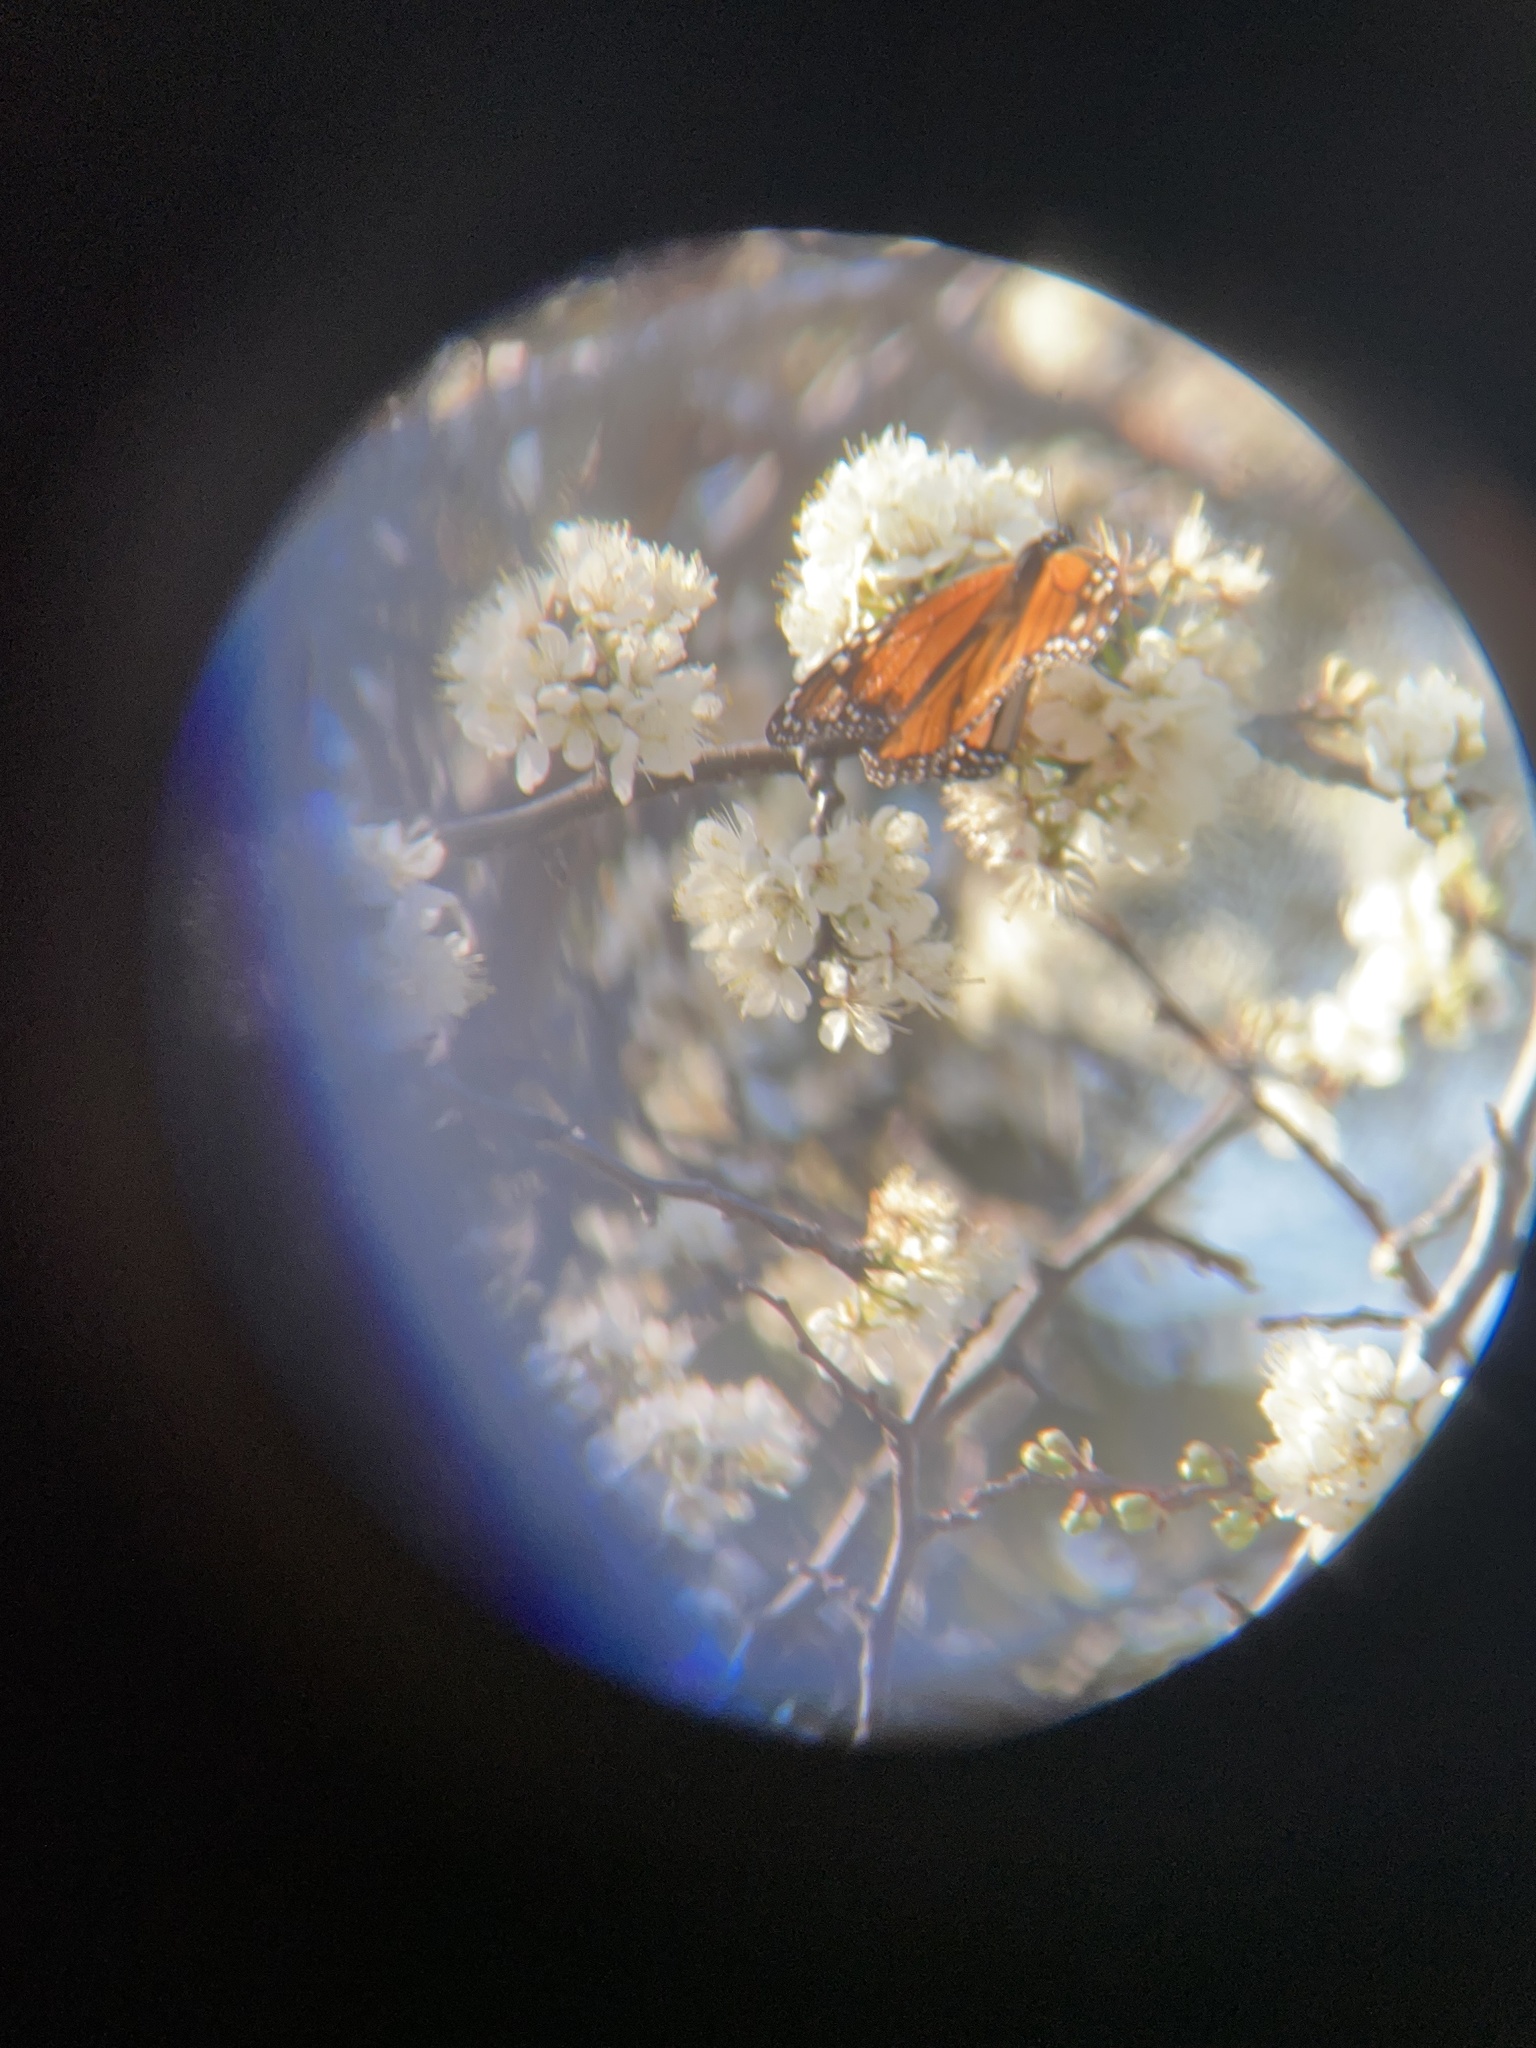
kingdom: Animalia
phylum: Arthropoda
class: Insecta
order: Lepidoptera
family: Nymphalidae
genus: Danaus
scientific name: Danaus plexippus
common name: Monarch
